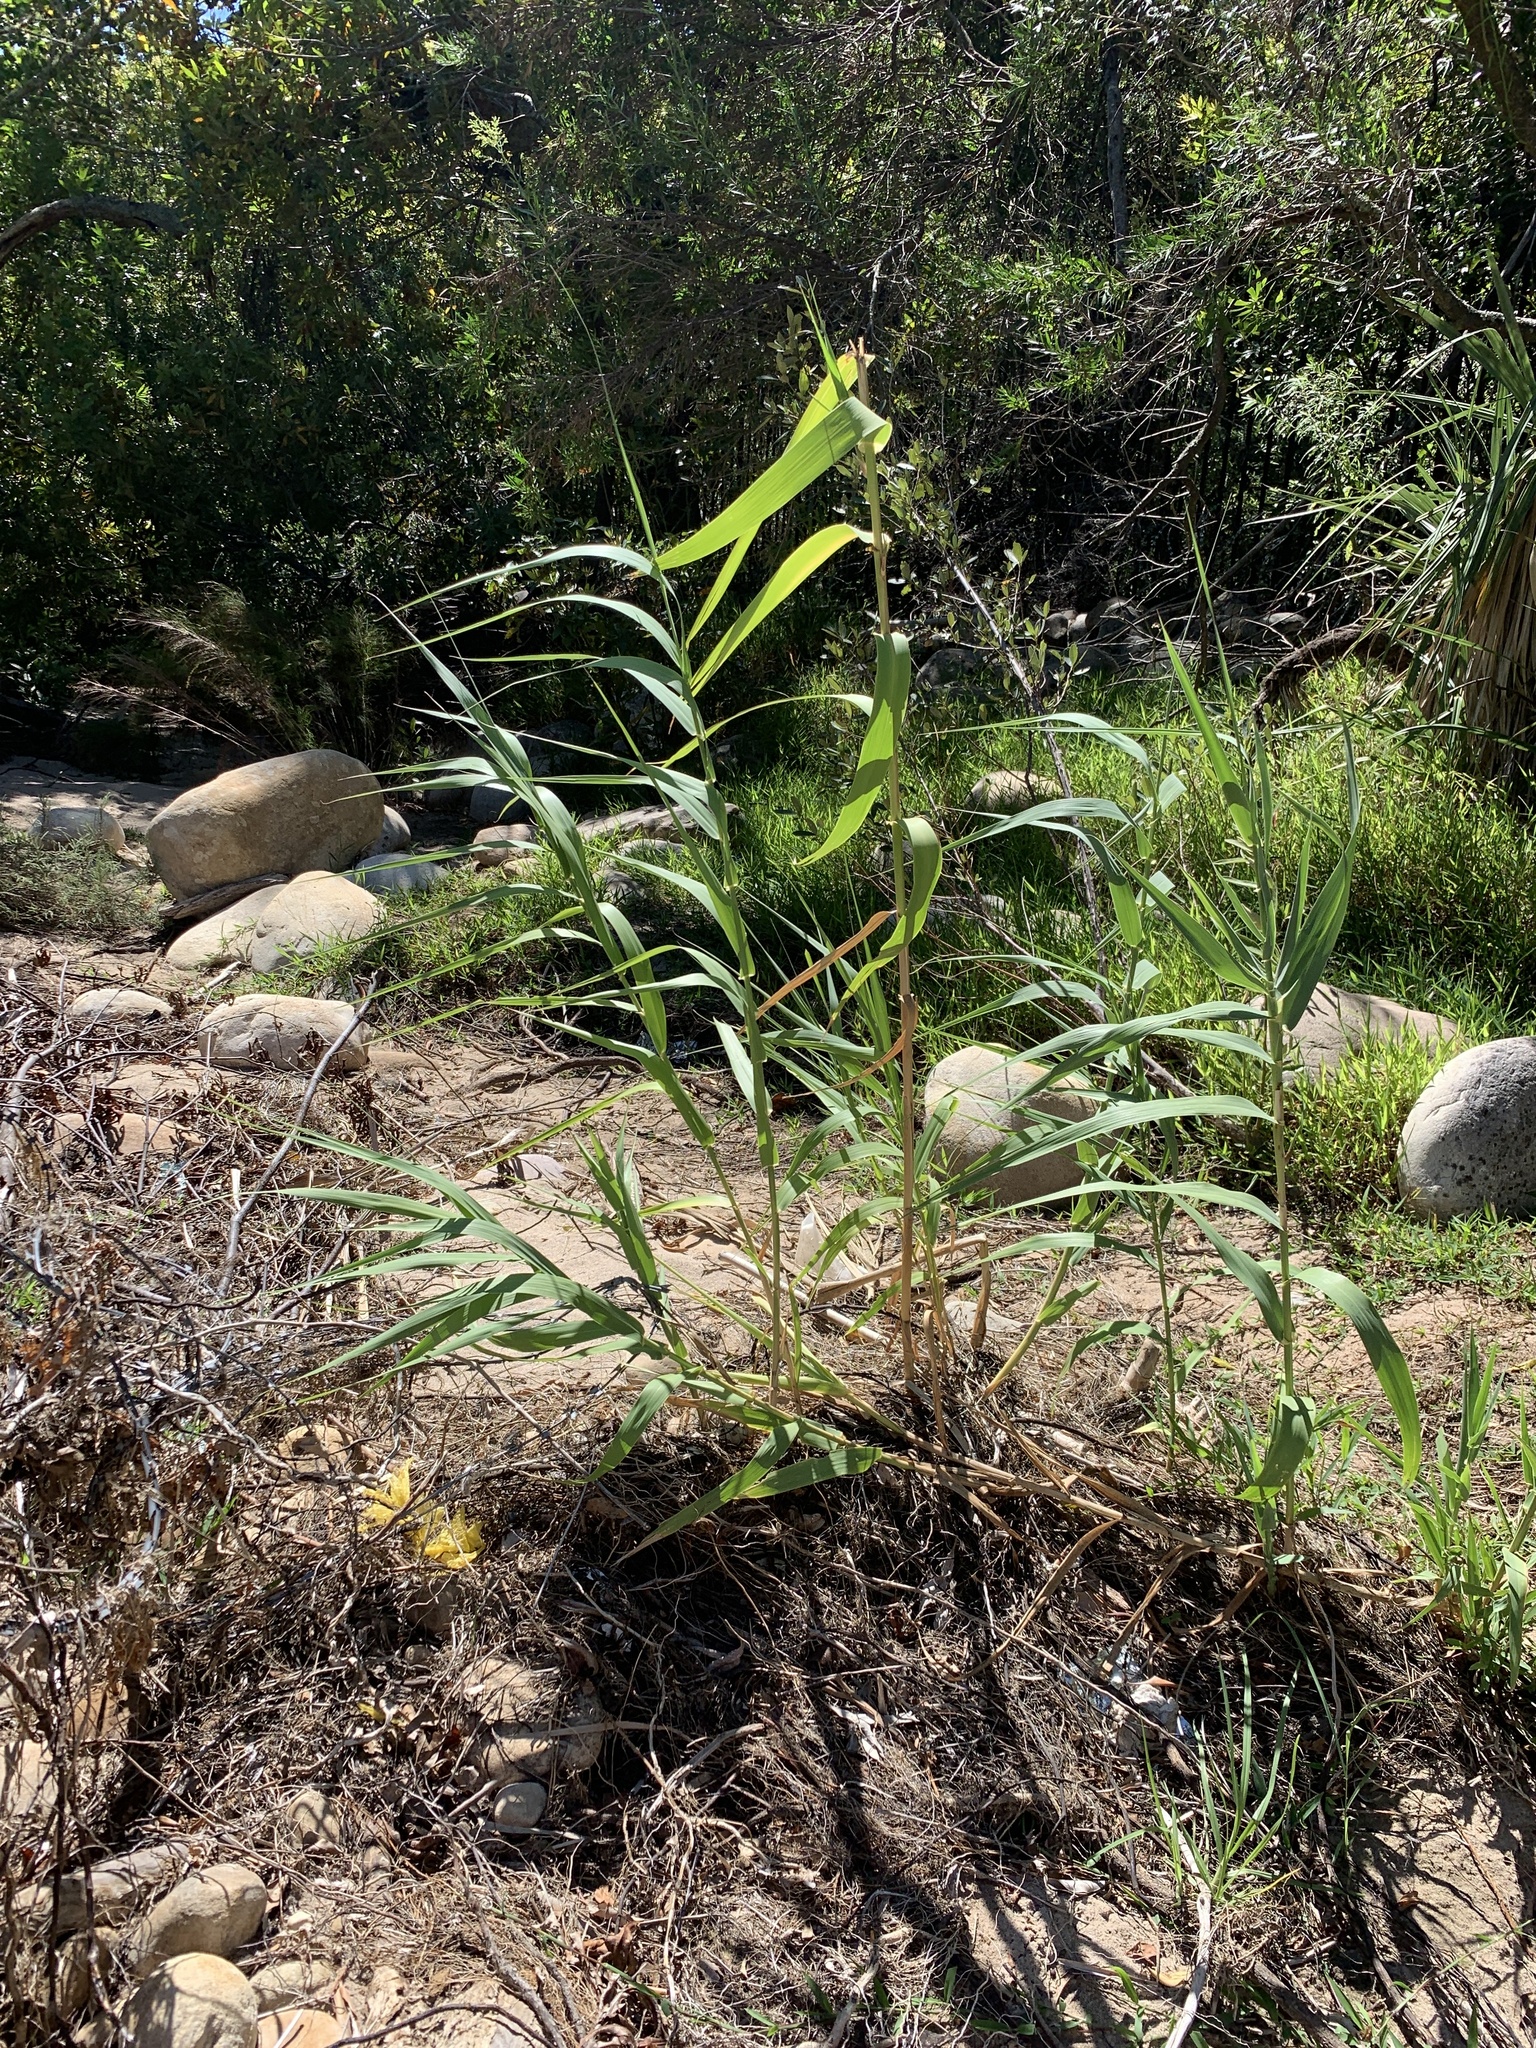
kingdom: Plantae
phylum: Tracheophyta
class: Liliopsida
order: Poales
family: Poaceae
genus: Arundo
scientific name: Arundo donax
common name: Giant reed
